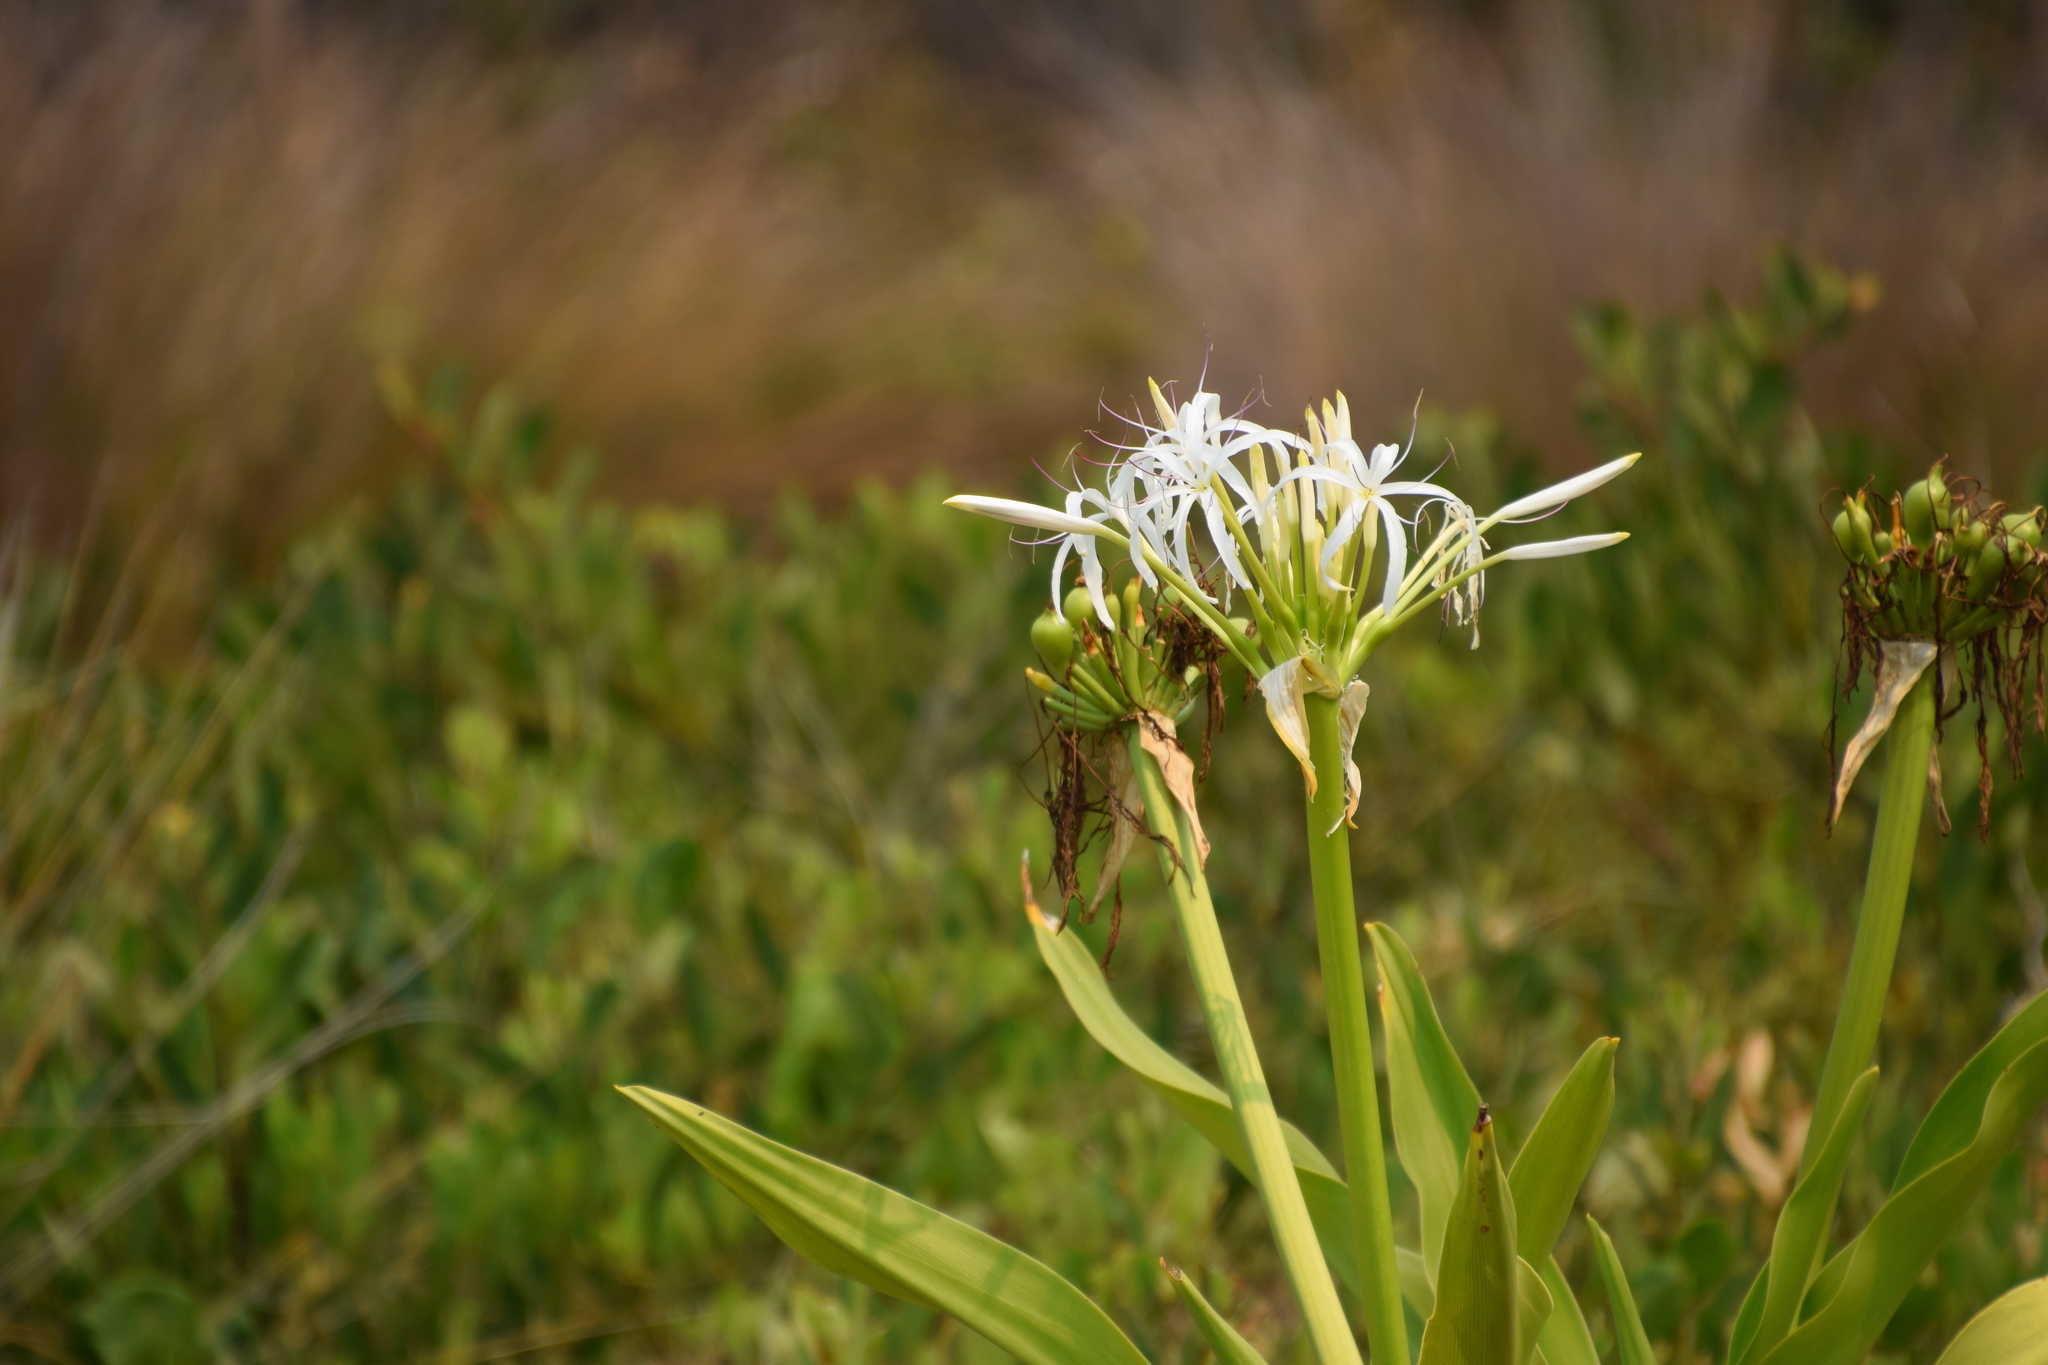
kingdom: Plantae
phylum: Tracheophyta
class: Liliopsida
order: Asparagales
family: Amaryllidaceae
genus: Crinum
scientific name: Crinum pedunculatum
